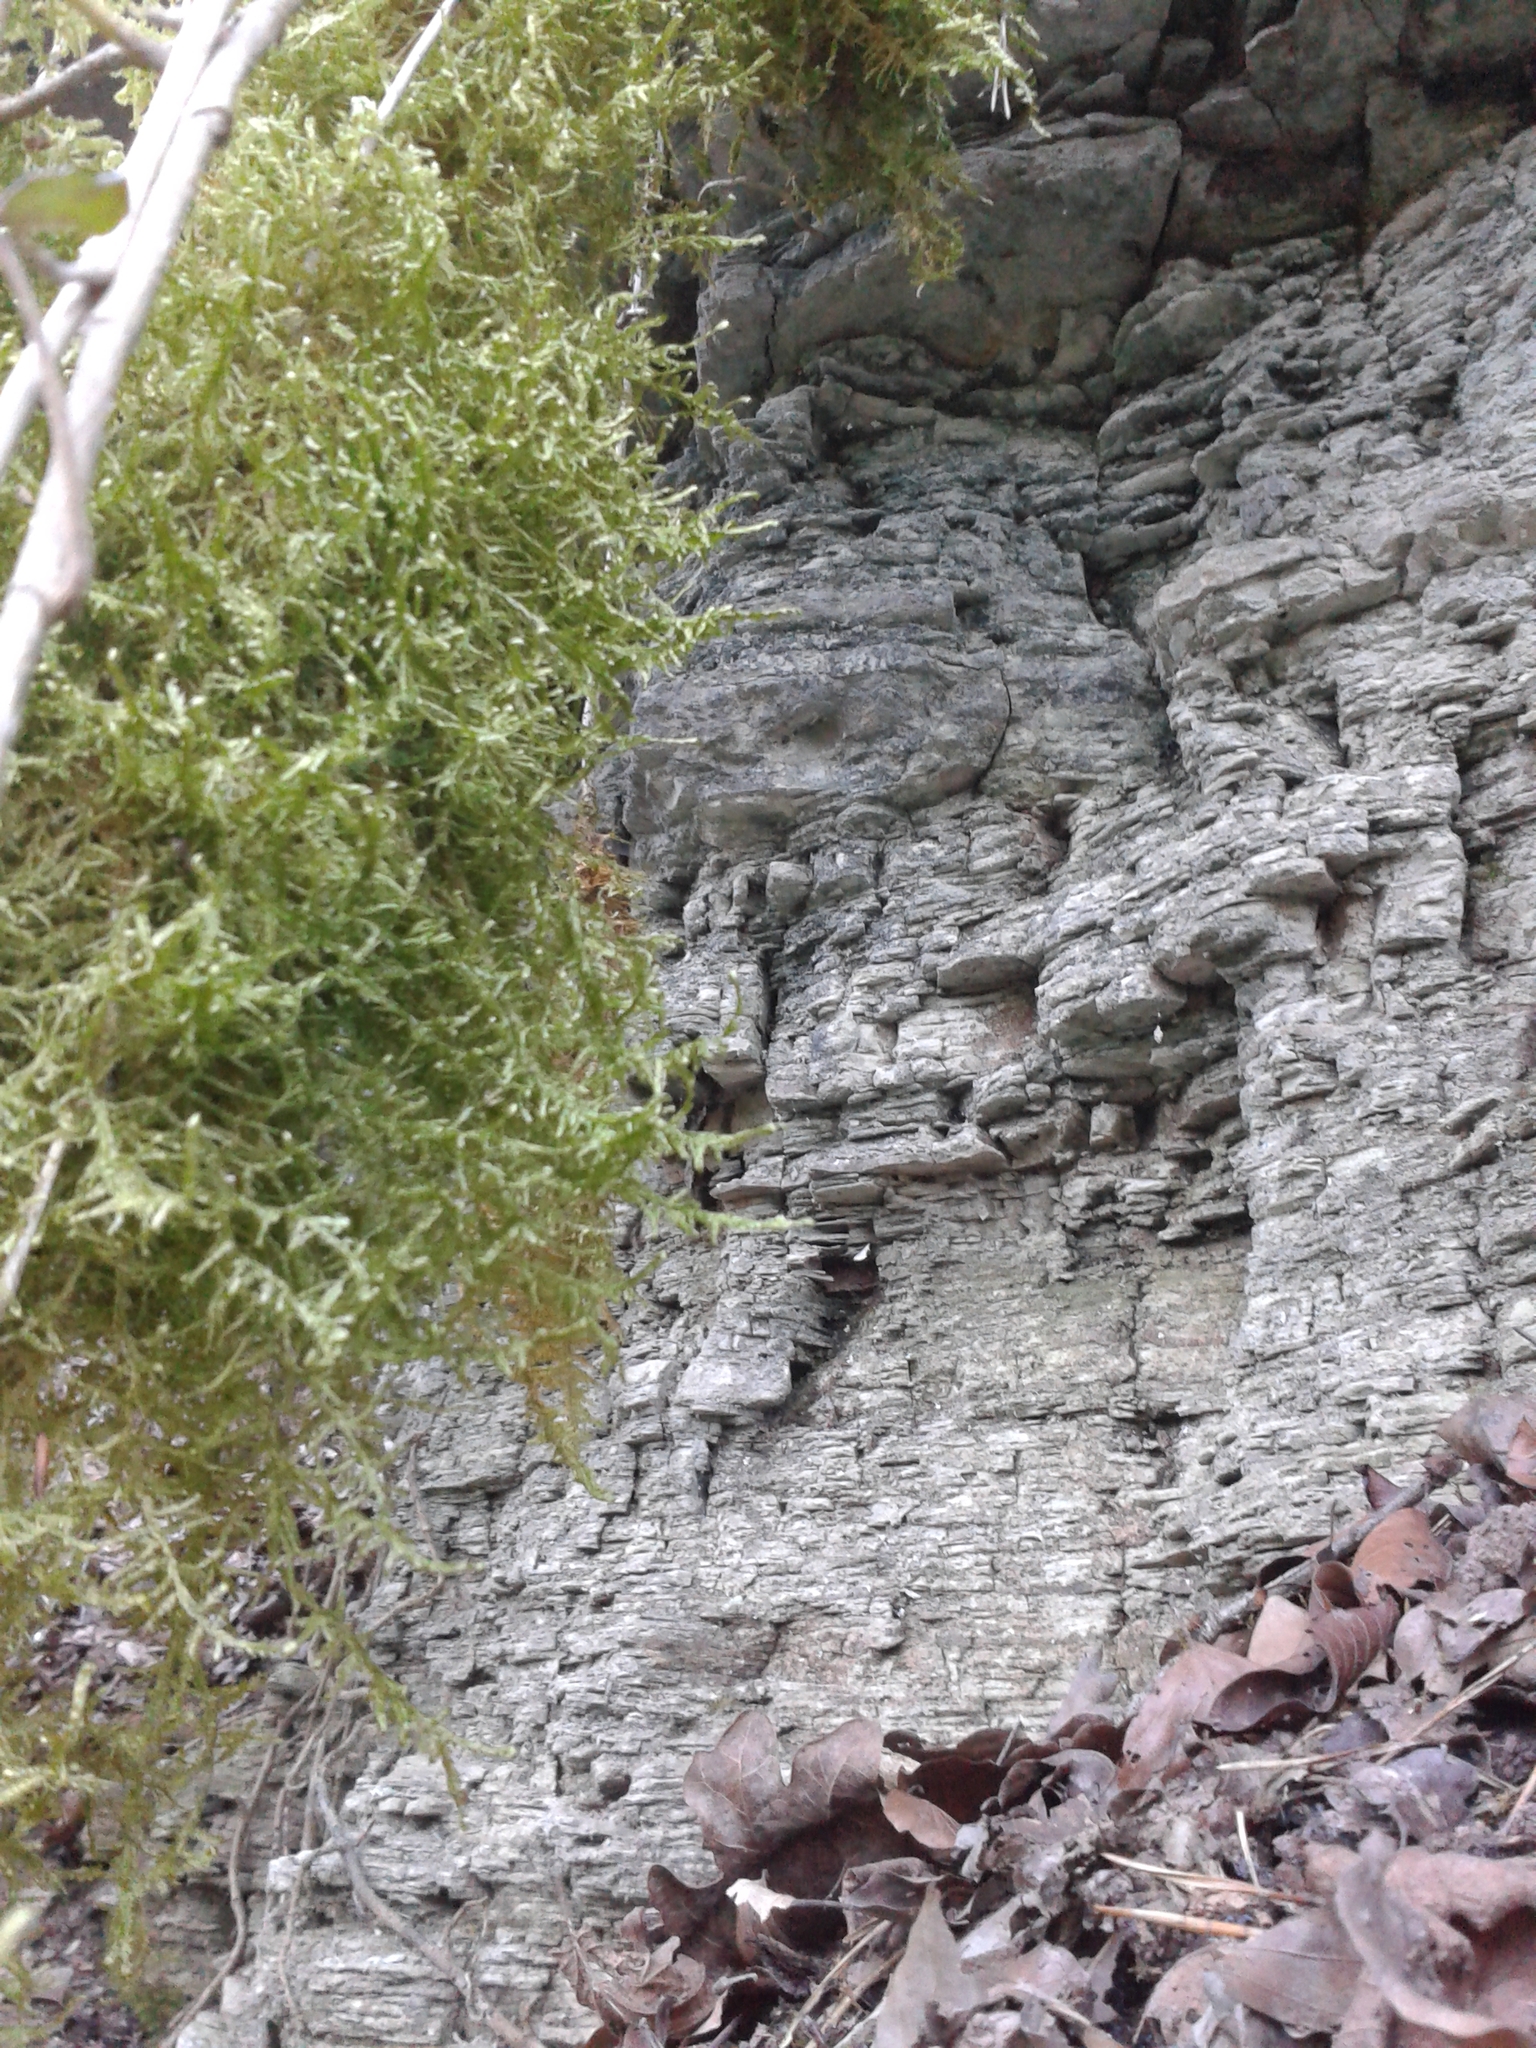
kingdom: Plantae
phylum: Bryophyta
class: Bryopsida
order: Hypnales
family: Neckeraceae
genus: Alleniella
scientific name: Alleniella complanata
